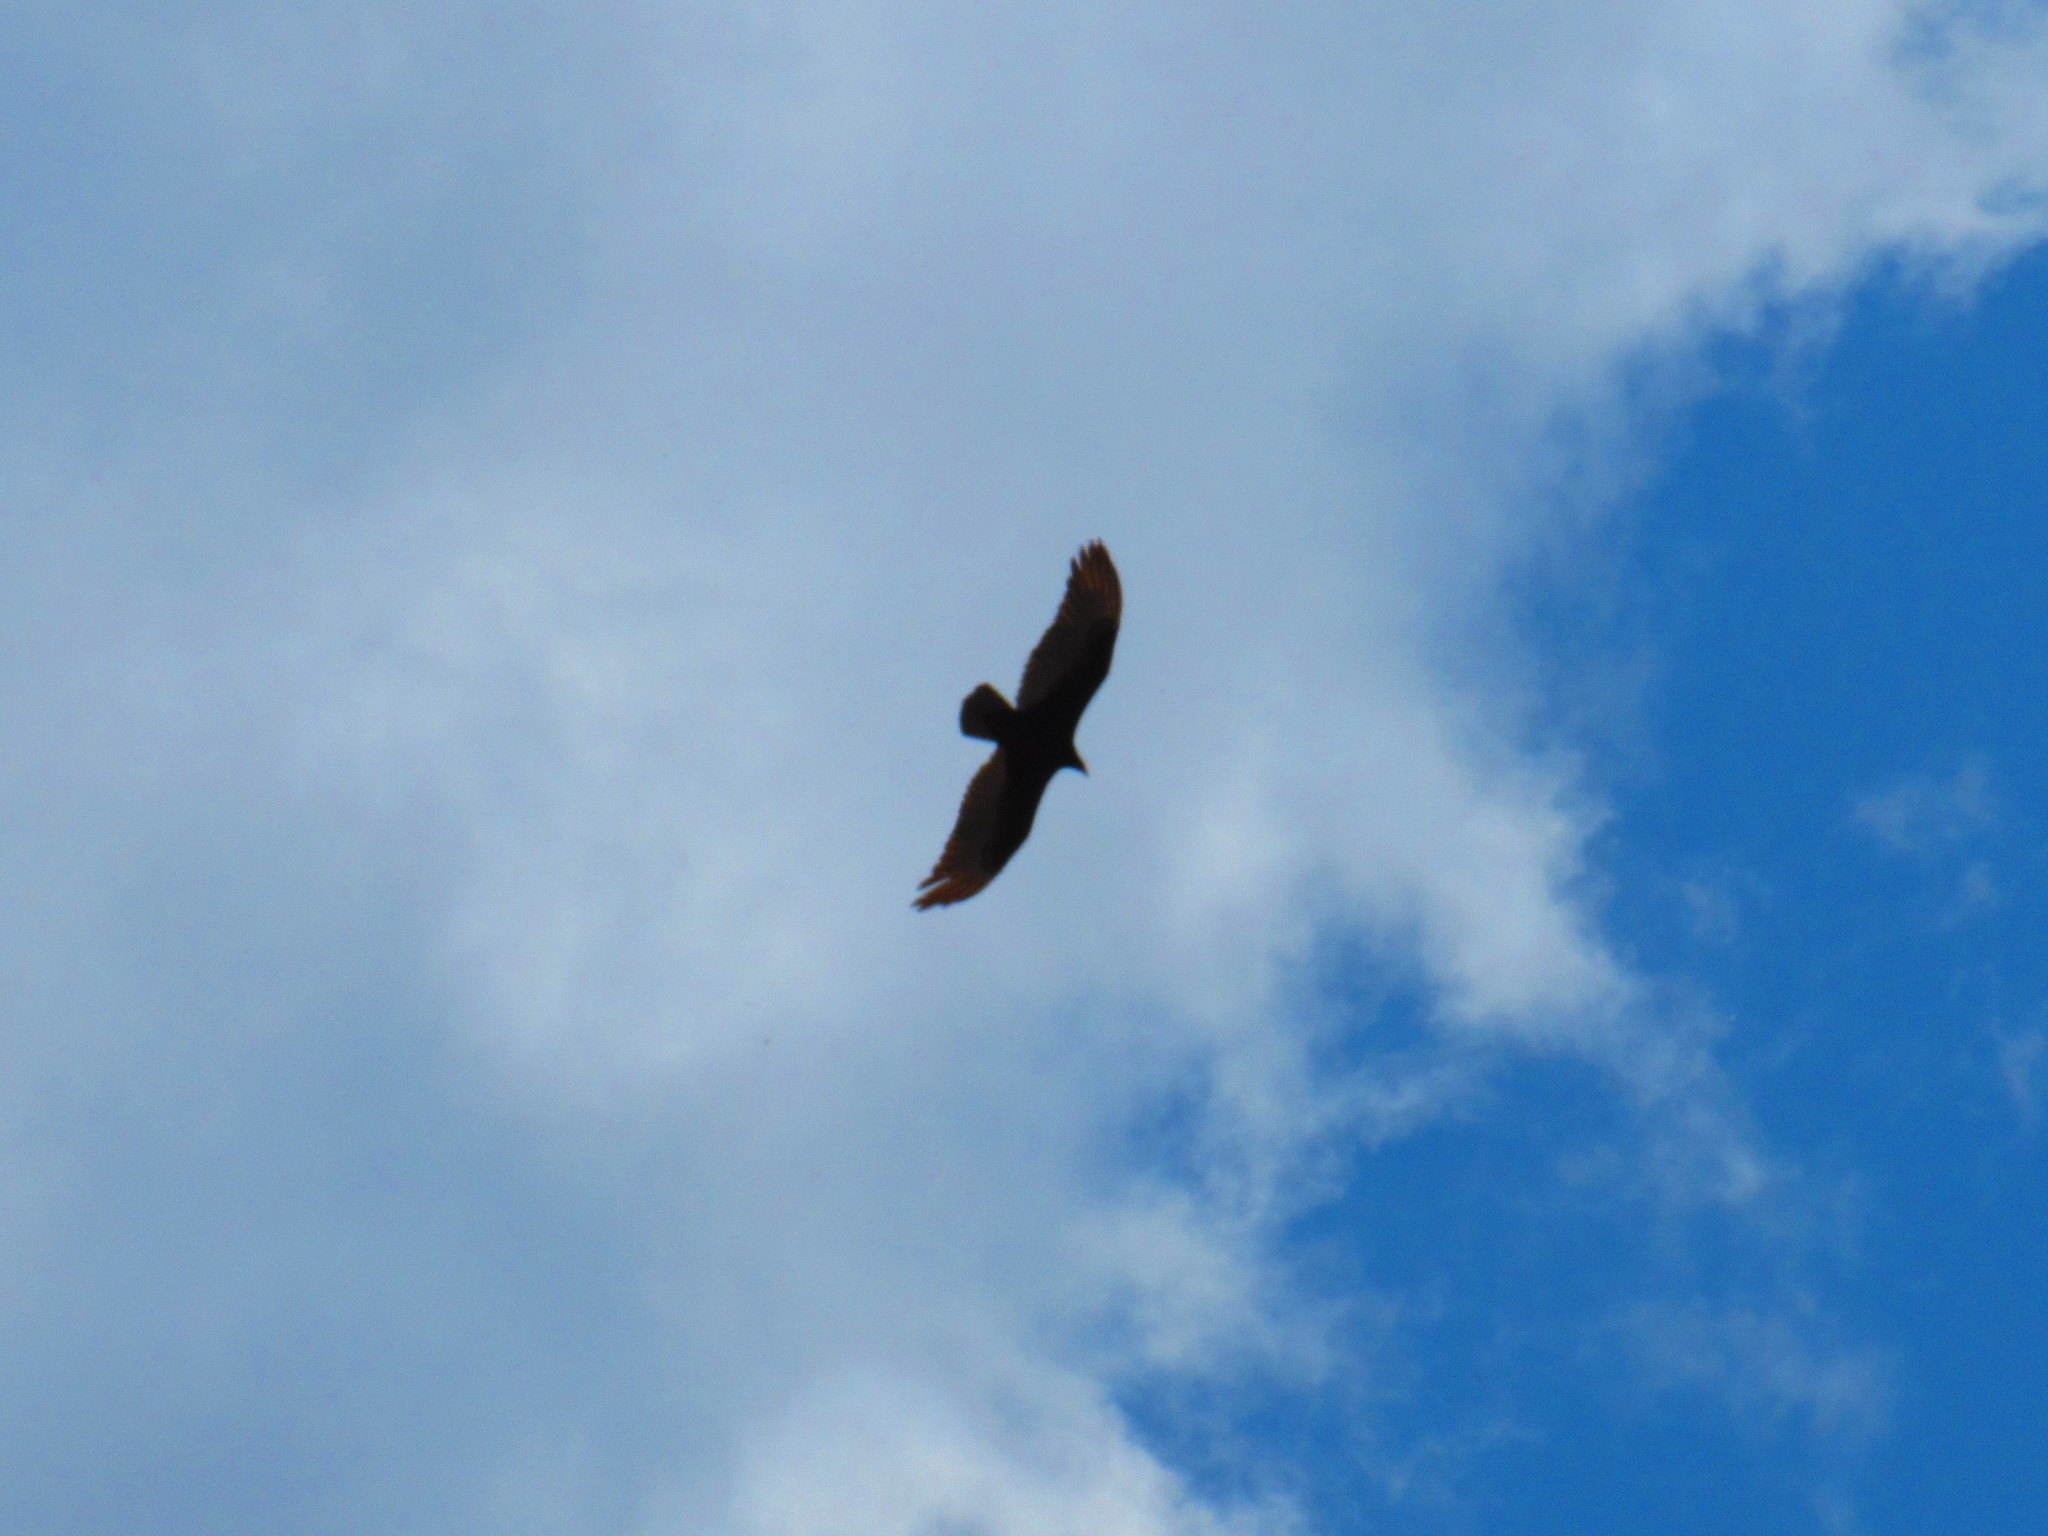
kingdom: Animalia
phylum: Chordata
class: Aves
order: Accipitriformes
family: Cathartidae
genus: Cathartes
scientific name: Cathartes aura
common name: Turkey vulture
